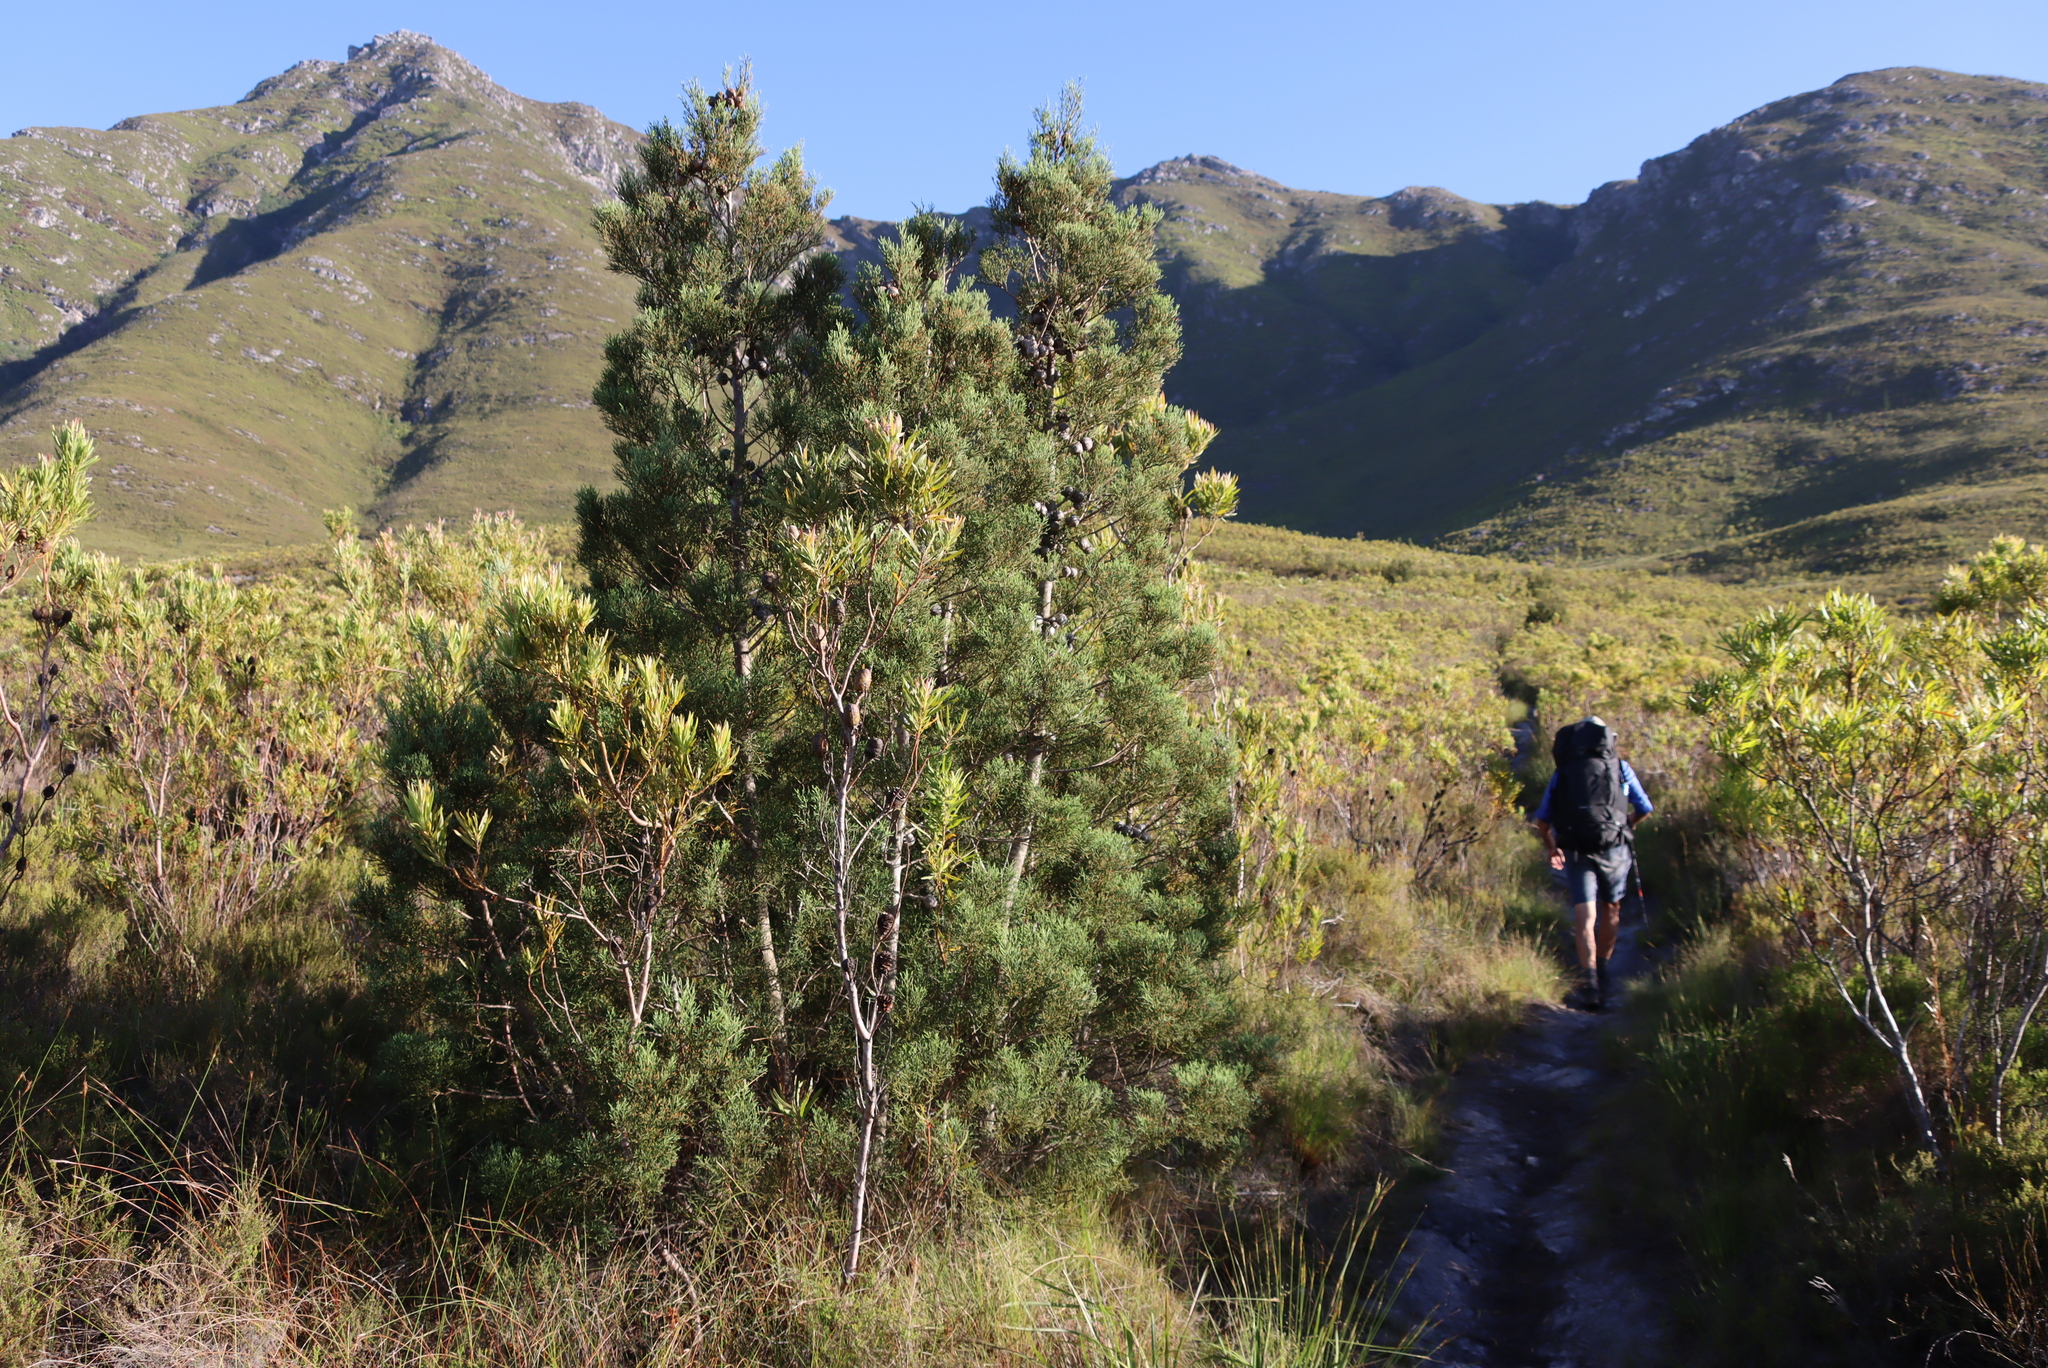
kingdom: Plantae
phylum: Tracheophyta
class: Pinopsida
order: Pinales
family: Cupressaceae
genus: Widdringtonia
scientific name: Widdringtonia nodiflora
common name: Cape cypress
